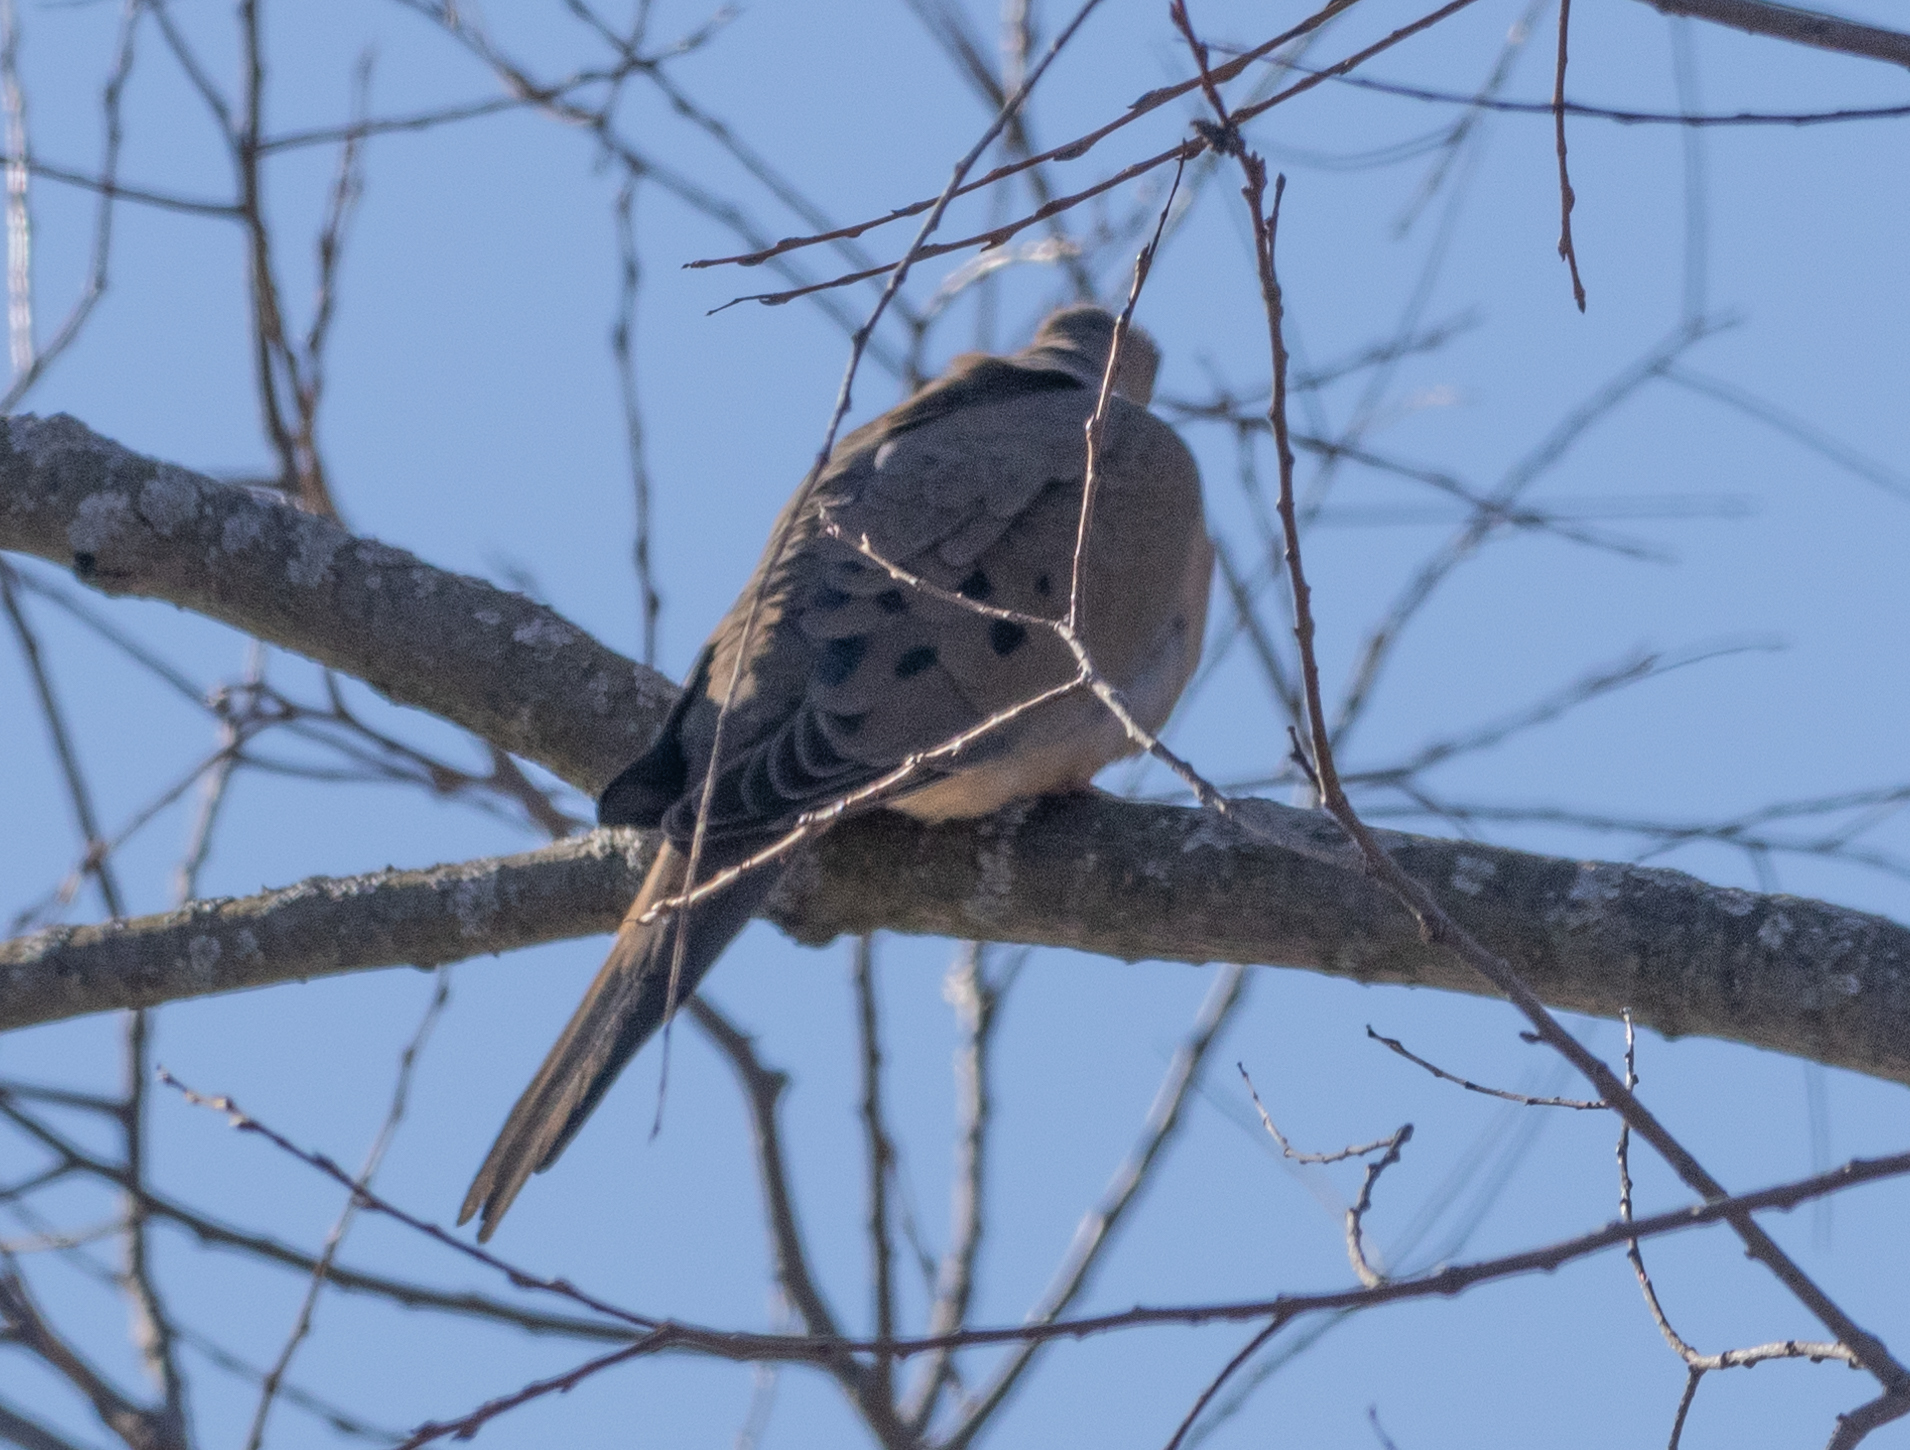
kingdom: Animalia
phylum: Chordata
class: Aves
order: Columbiformes
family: Columbidae
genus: Zenaida
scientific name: Zenaida macroura
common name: Mourning dove
